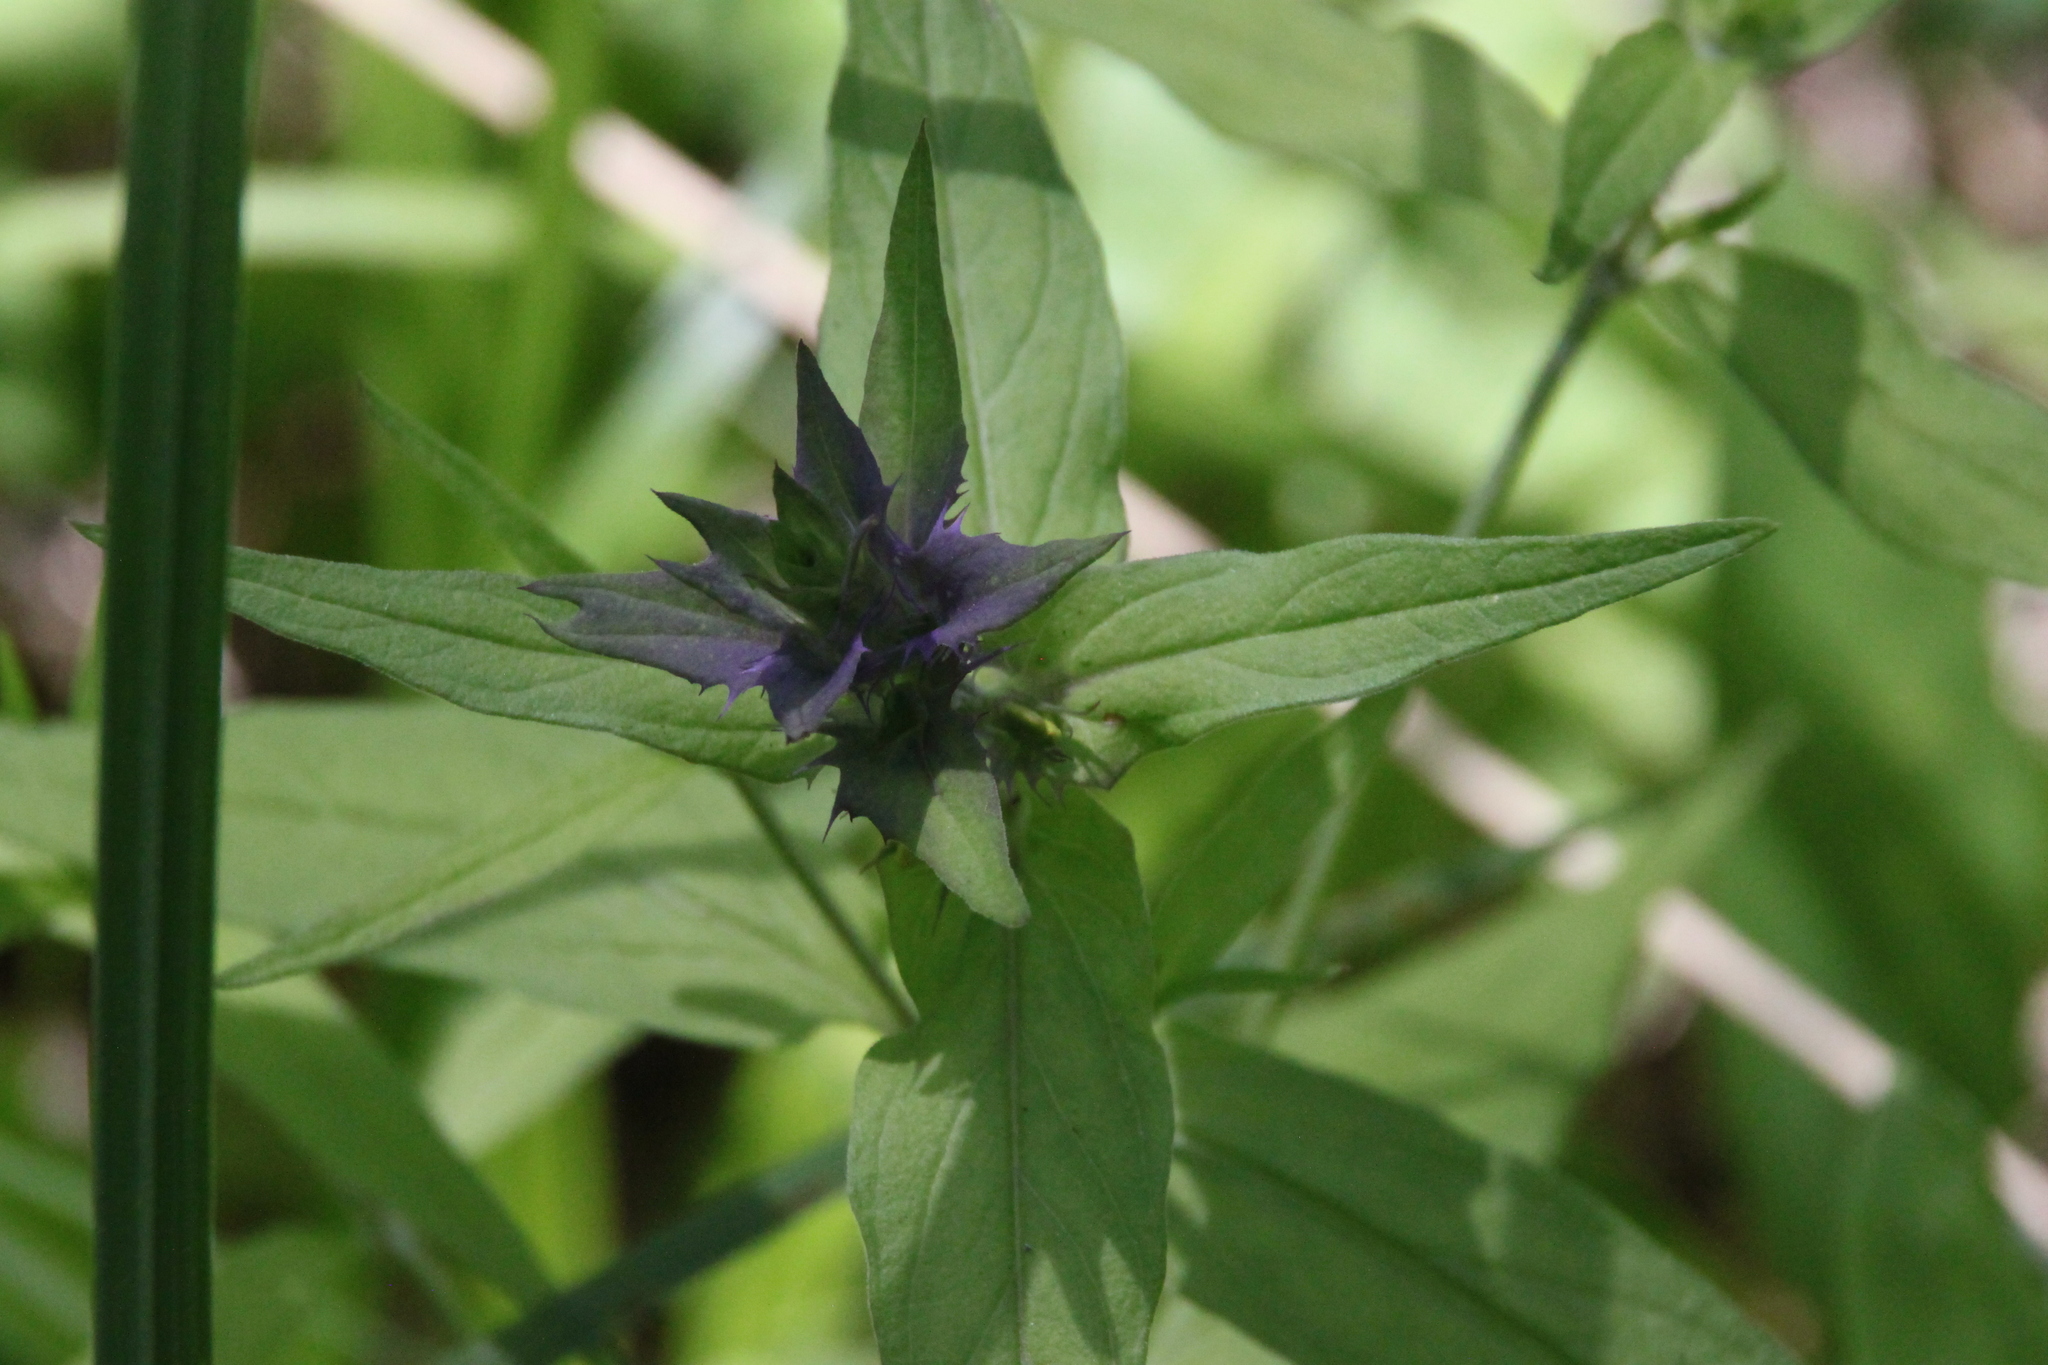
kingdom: Plantae
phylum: Tracheophyta
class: Magnoliopsida
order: Lamiales
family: Orobanchaceae
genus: Melampyrum
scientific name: Melampyrum nemorosum
